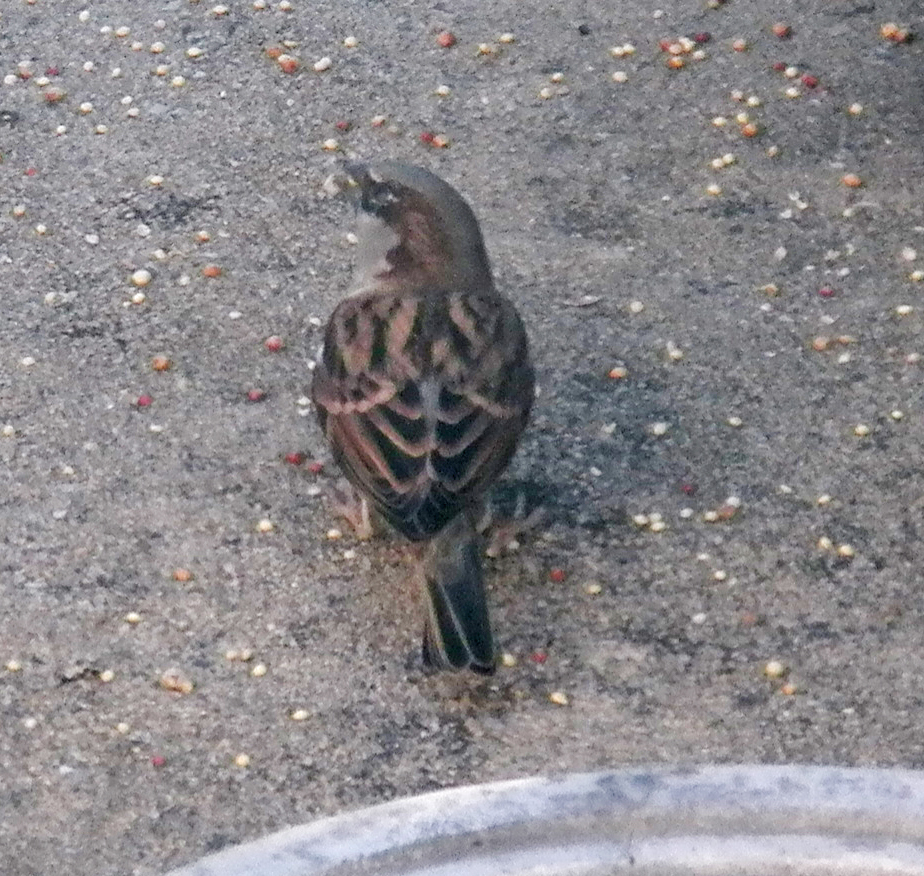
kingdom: Animalia
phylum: Chordata
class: Aves
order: Passeriformes
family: Passeridae
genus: Passer
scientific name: Passer domesticus
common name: House sparrow
